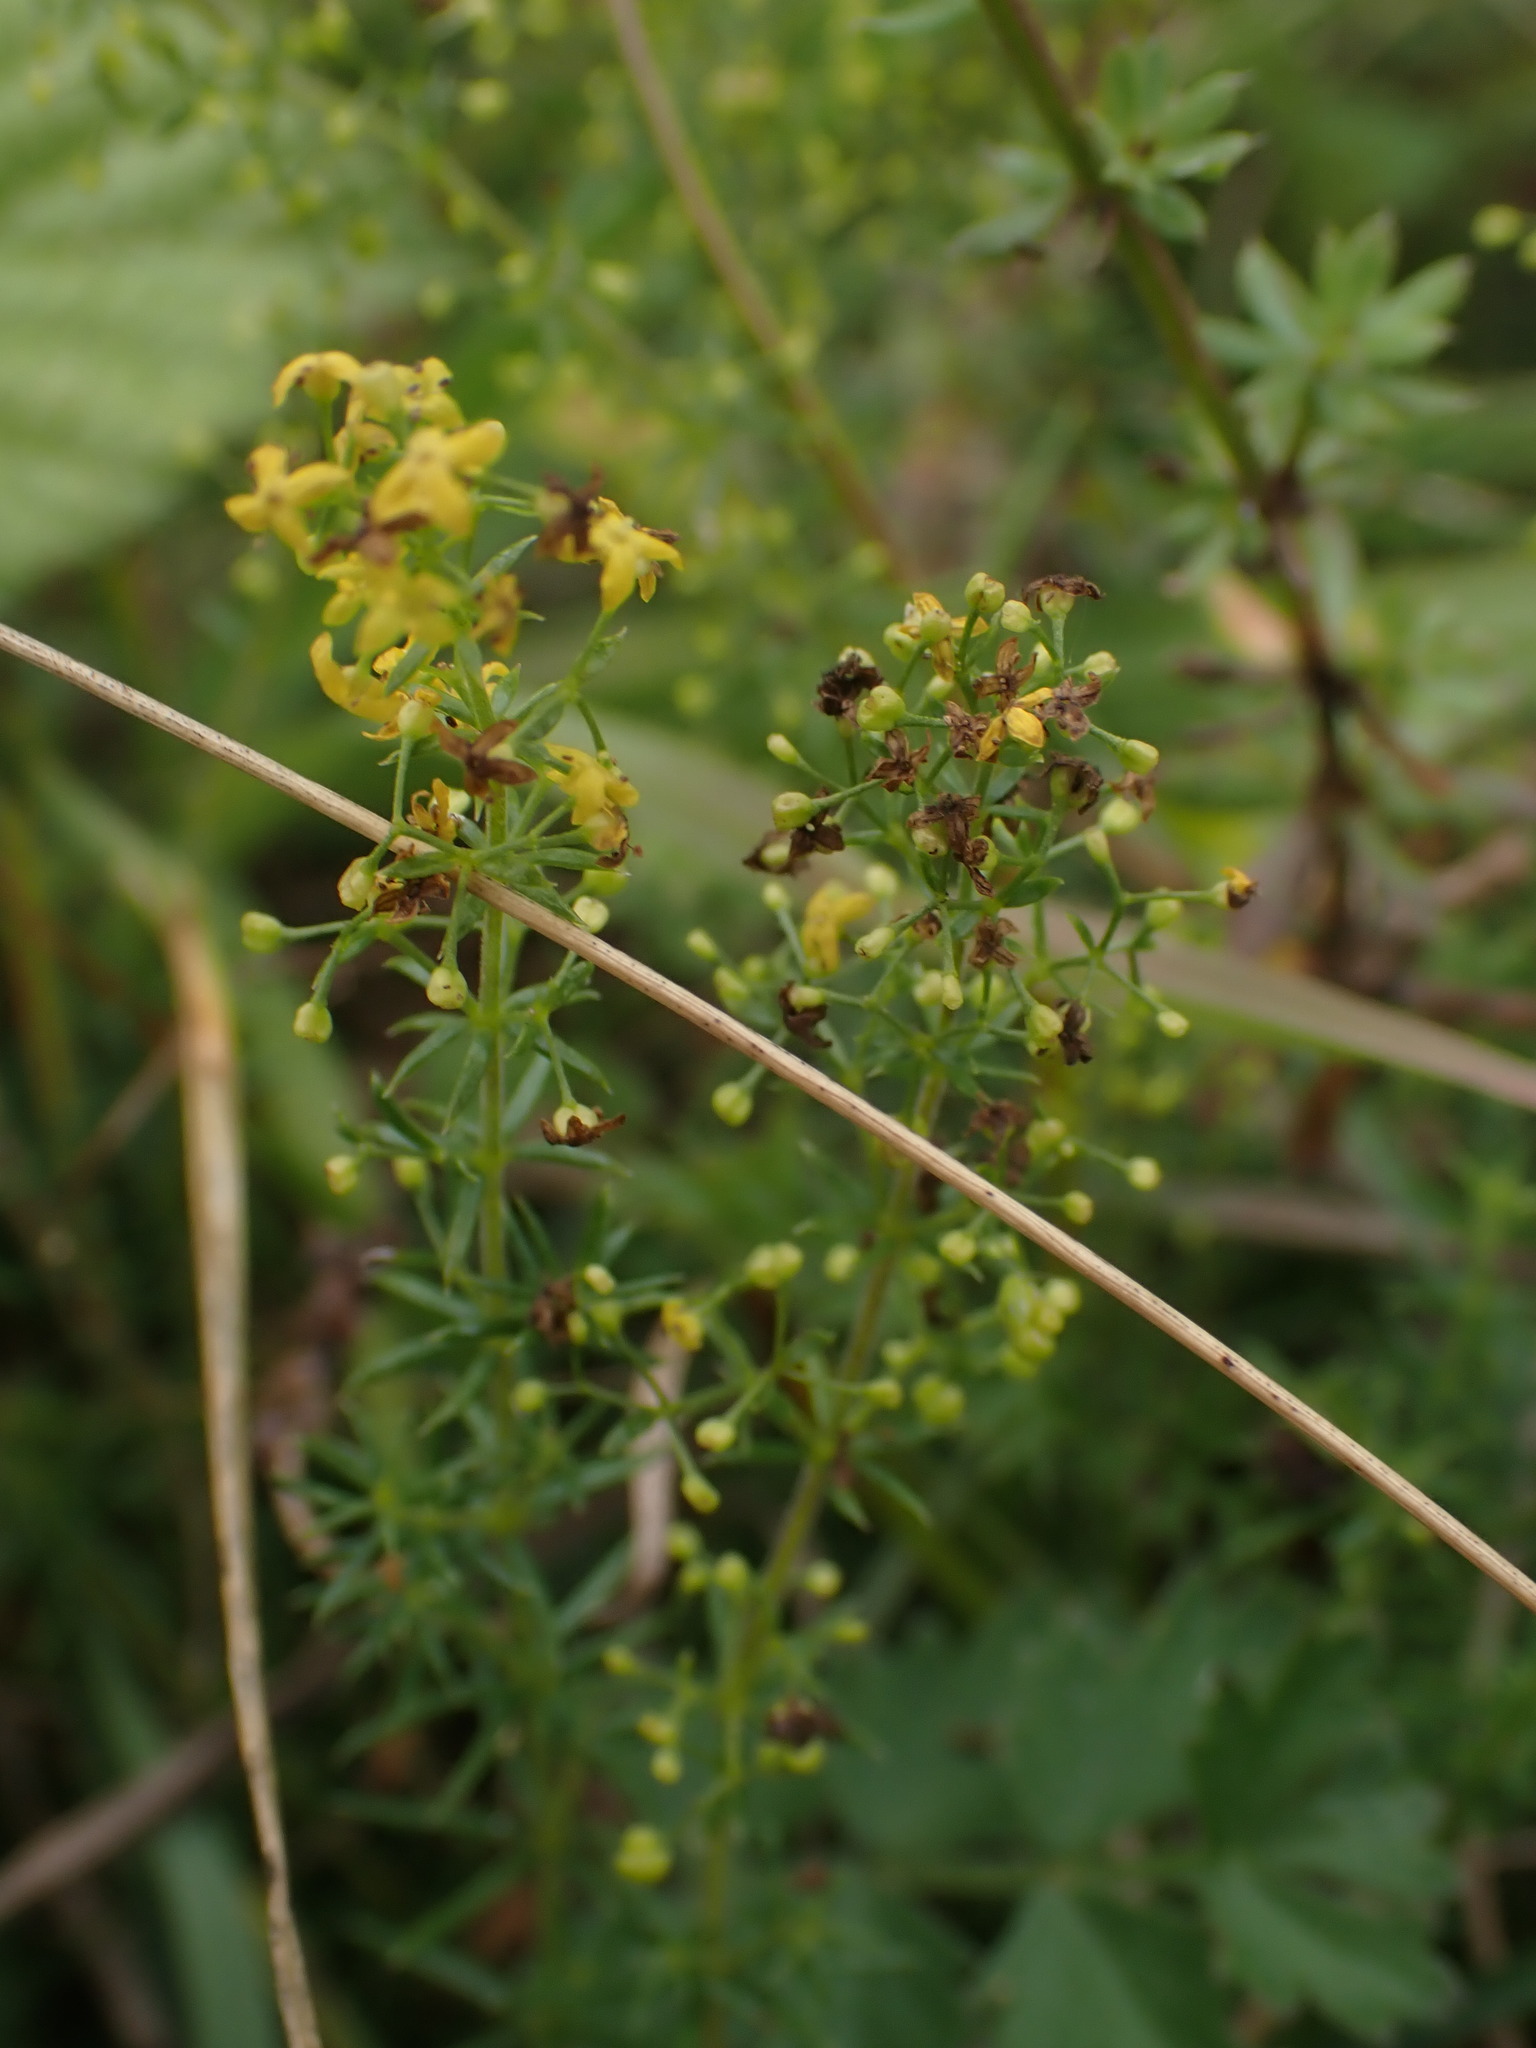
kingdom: Plantae
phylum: Tracheophyta
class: Magnoliopsida
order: Gentianales
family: Rubiaceae
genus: Galium
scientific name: Galium verum
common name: Lady's bedstraw
